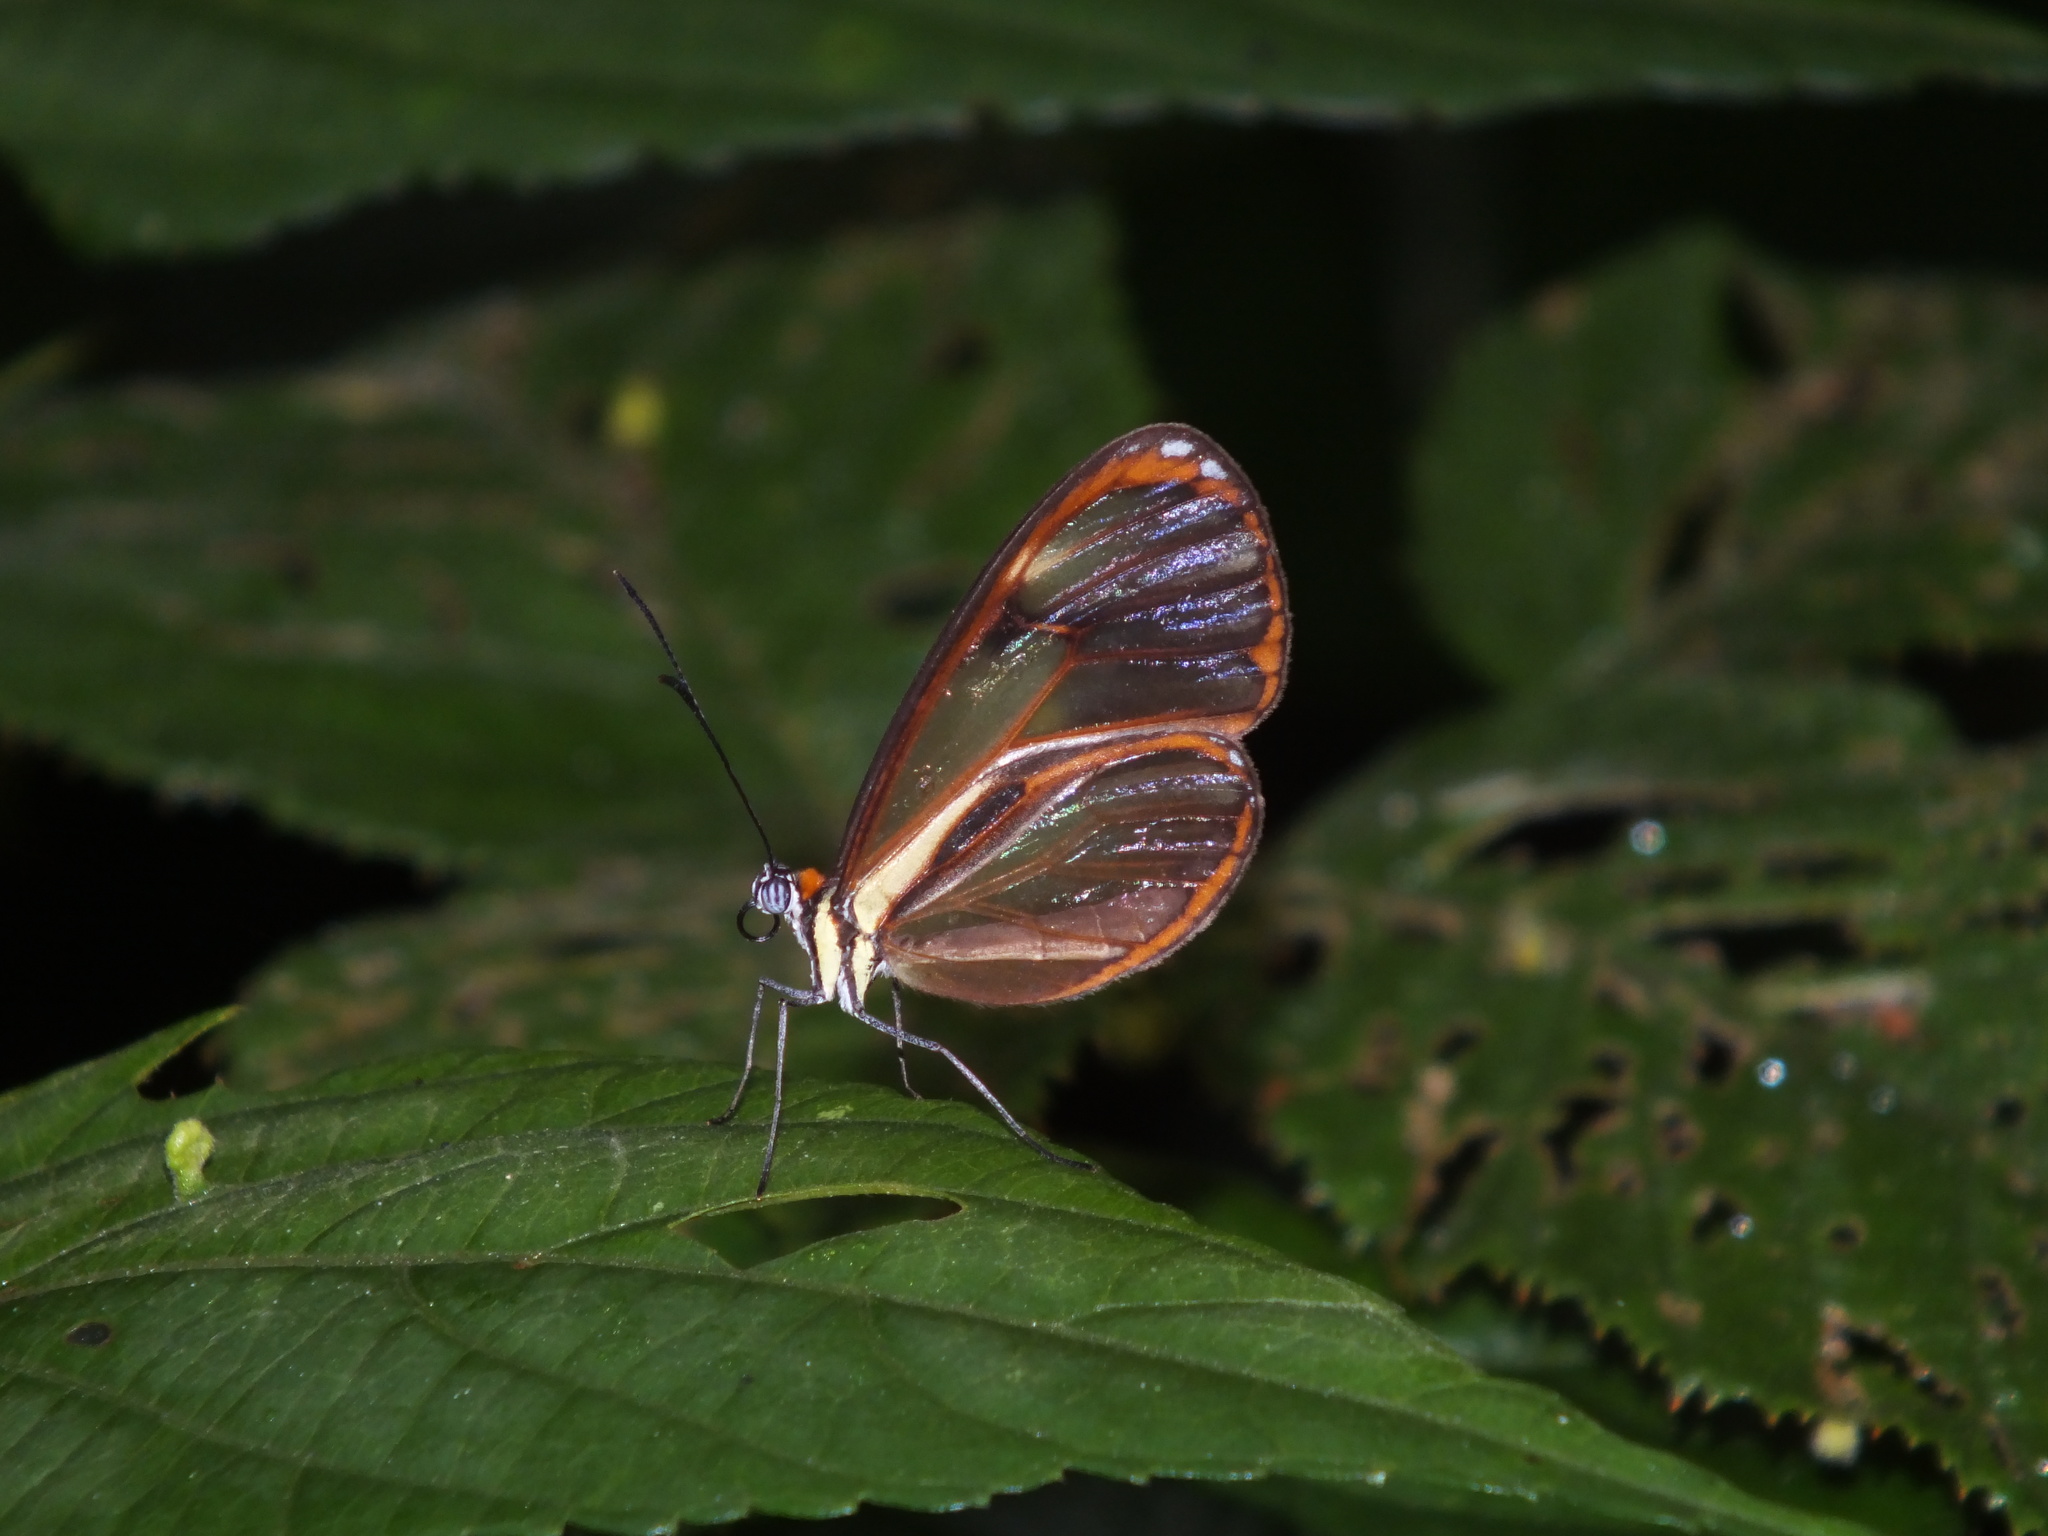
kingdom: Animalia
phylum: Arthropoda
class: Insecta
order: Lepidoptera
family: Nymphalidae
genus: Ithomia
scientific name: Ithomia pseudoagalla
